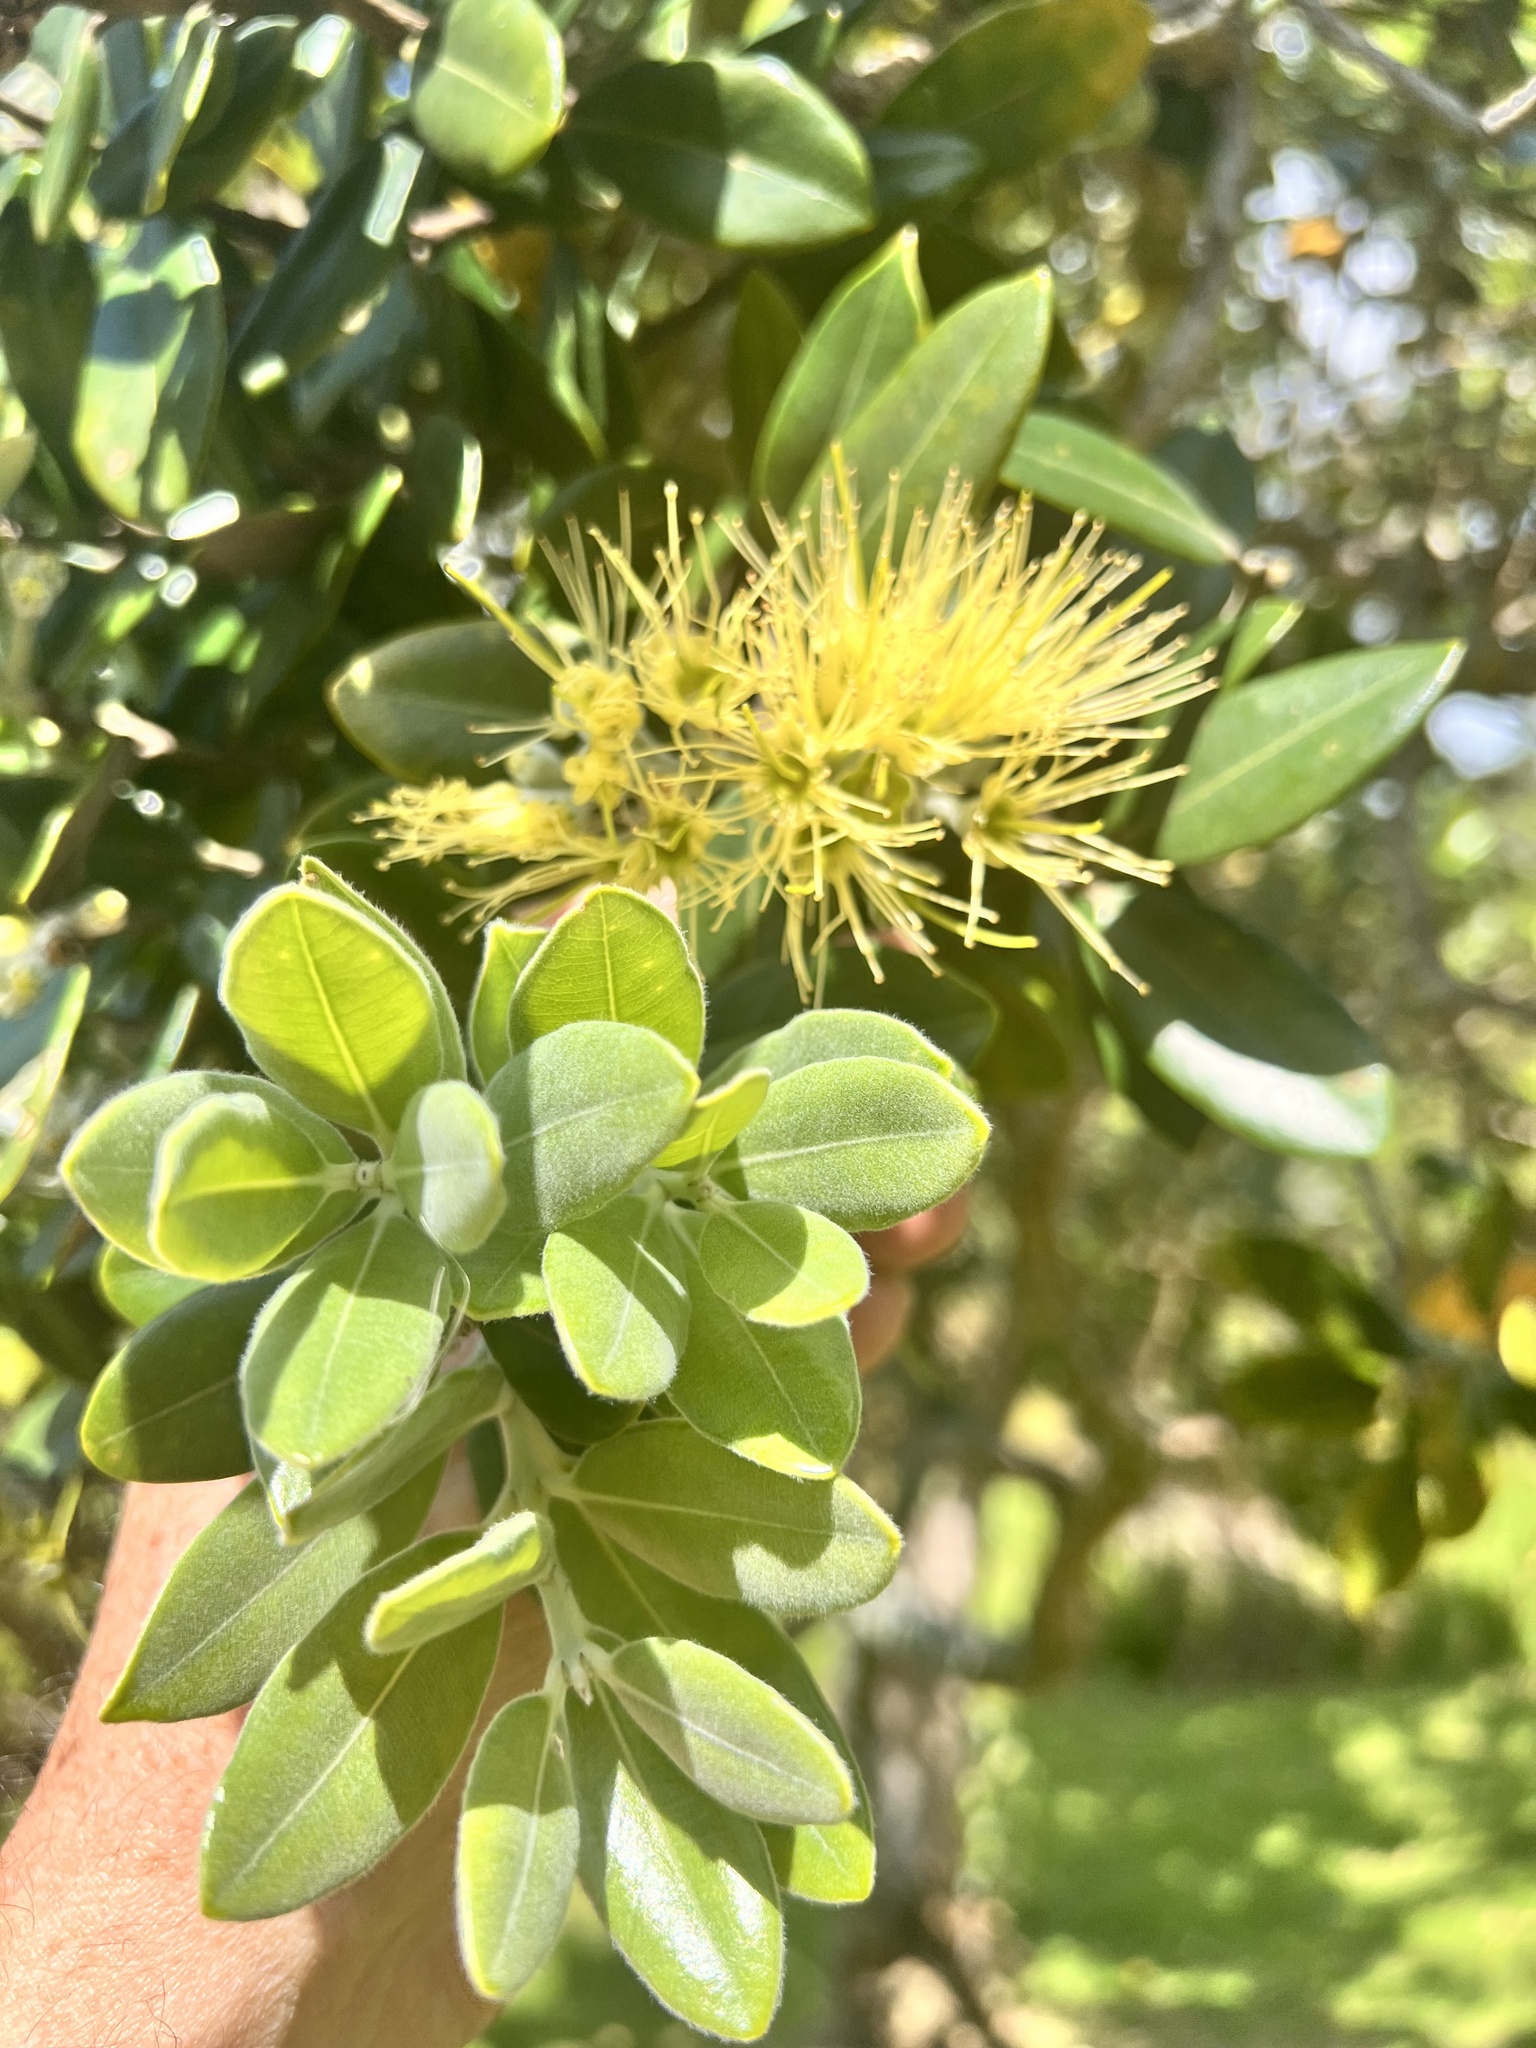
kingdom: Plantae
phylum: Tracheophyta
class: Magnoliopsida
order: Myrtales
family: Myrtaceae
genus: Metrosideros
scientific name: Metrosideros excelsa
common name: New zealand christmastree
